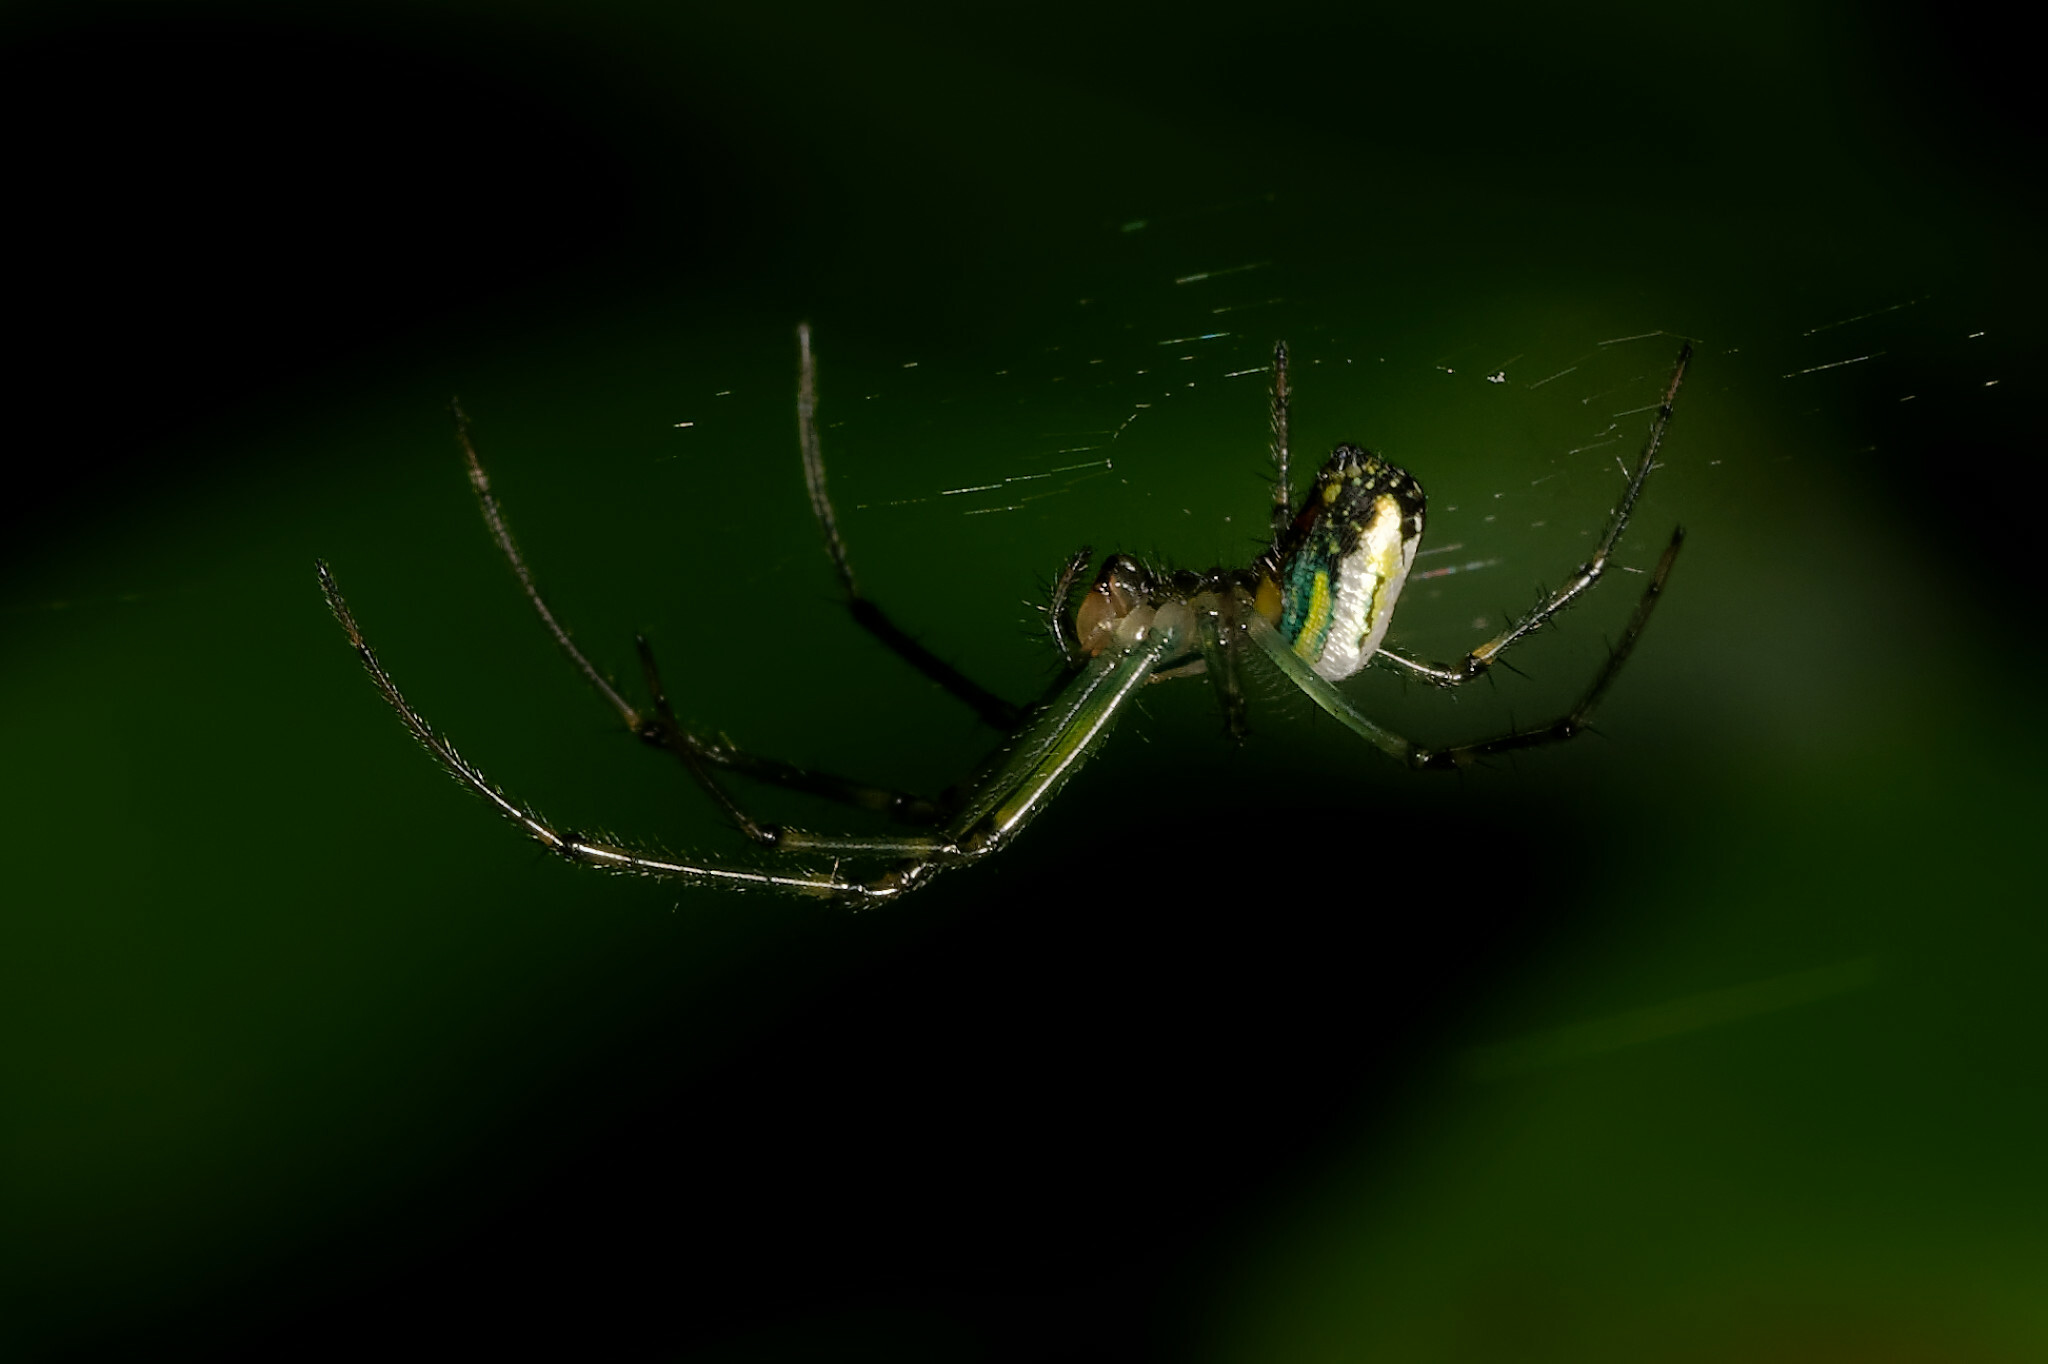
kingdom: Animalia
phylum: Arthropoda
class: Arachnida
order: Araneae
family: Tetragnathidae
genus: Leucauge
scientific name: Leucauge venusta
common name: Longjawed orb weavers
